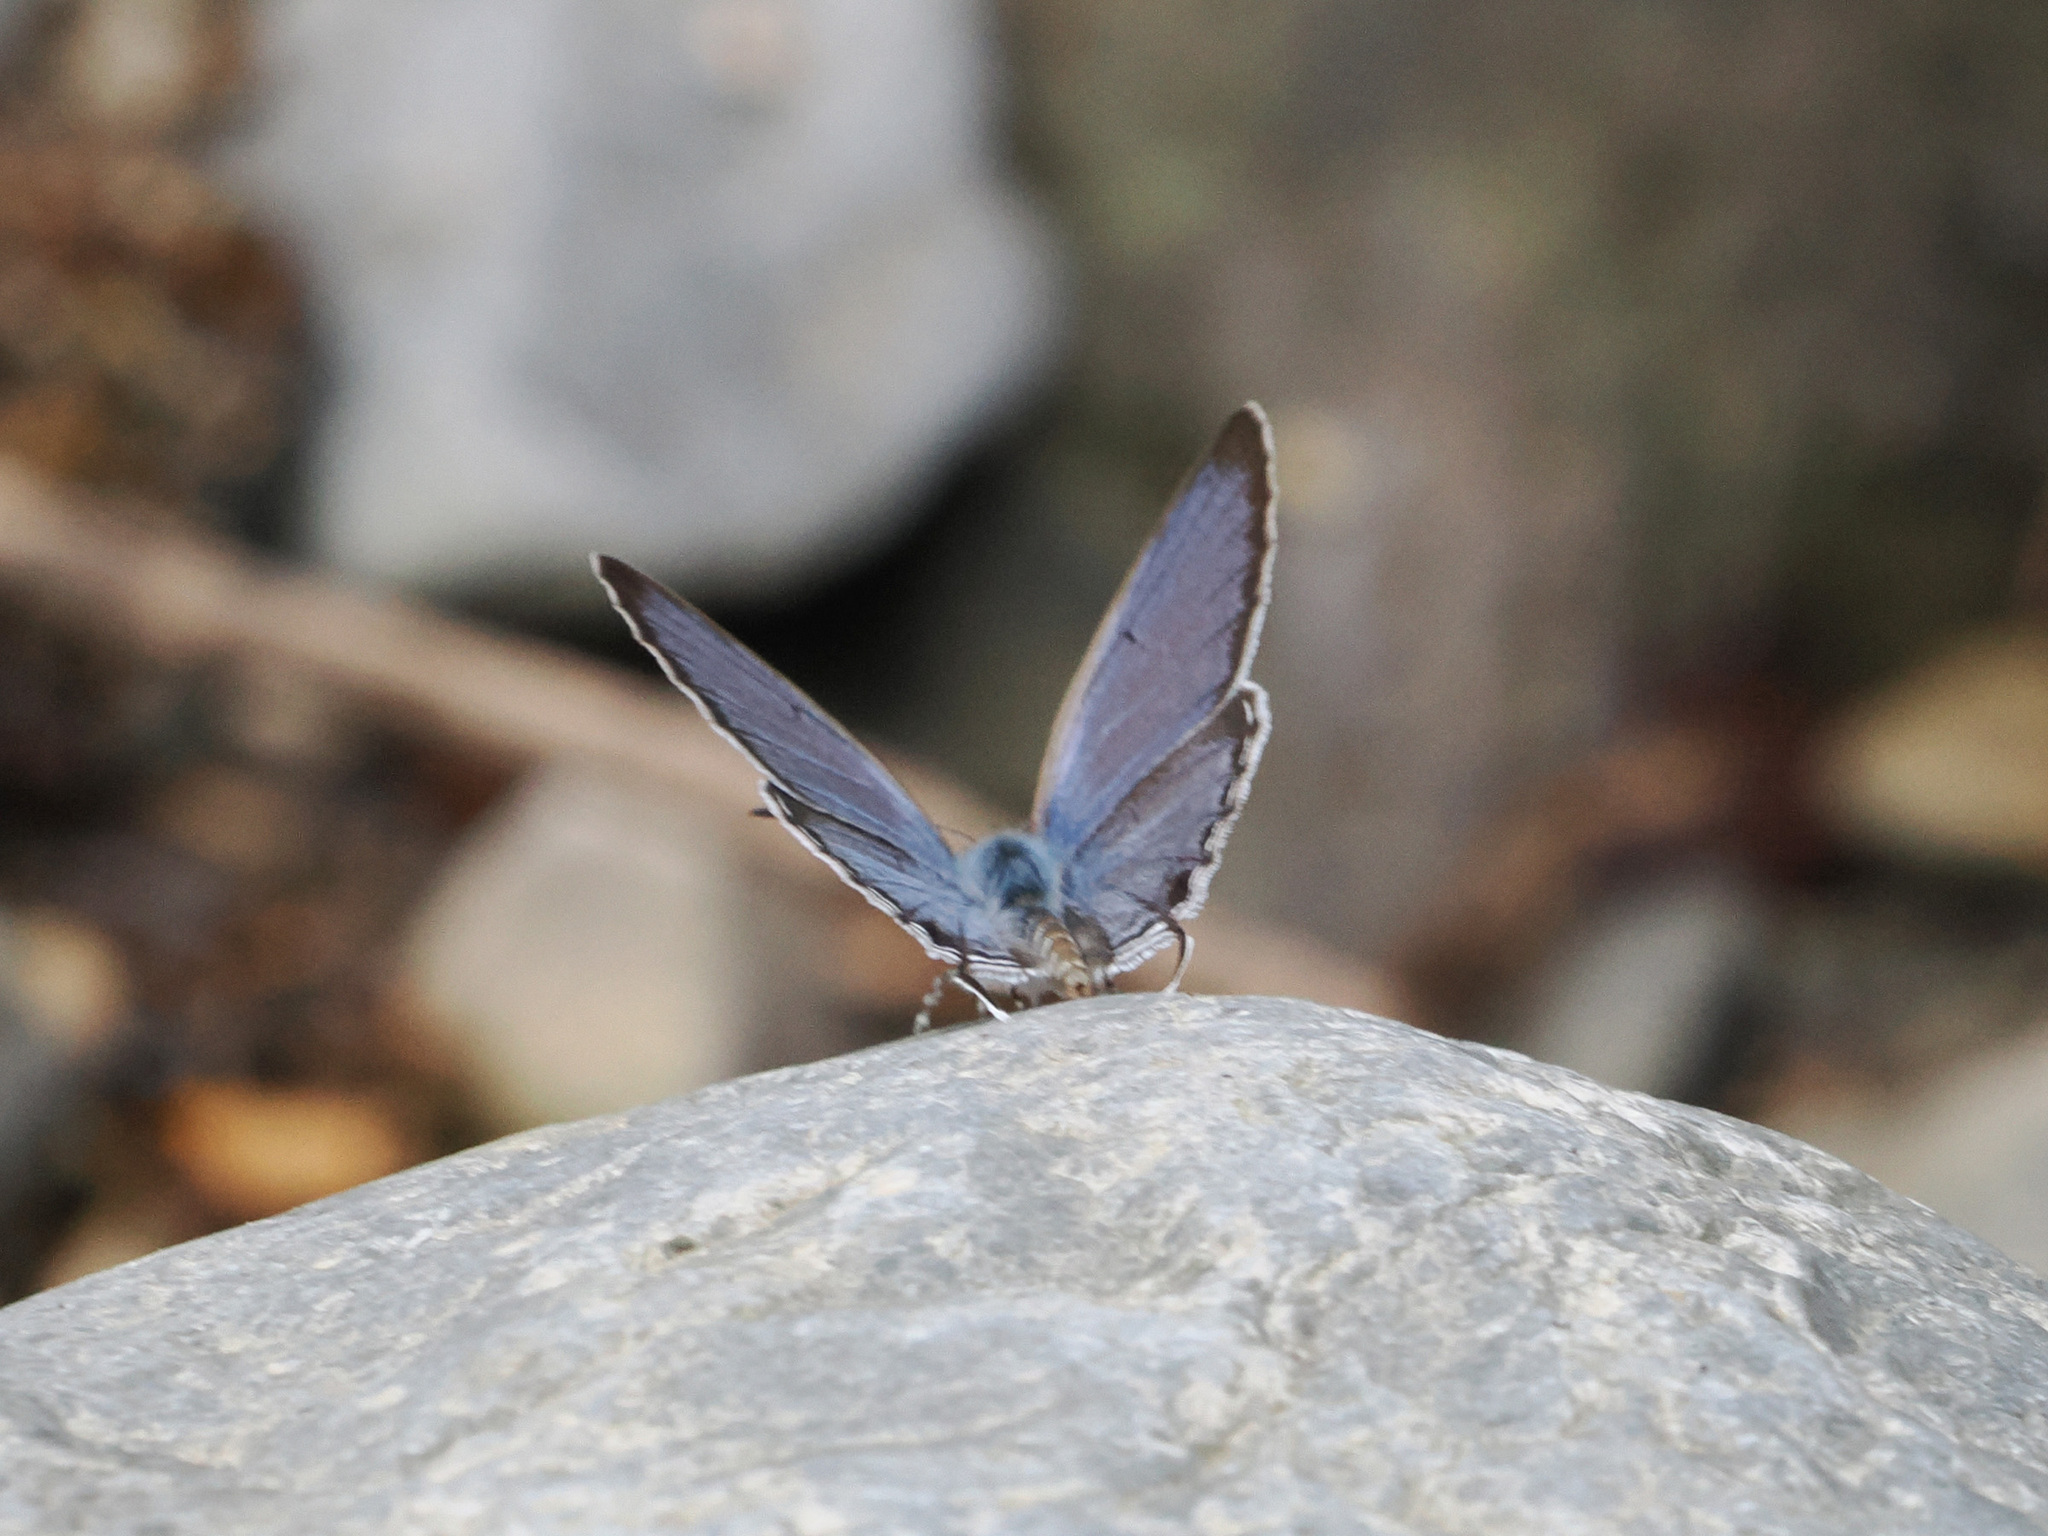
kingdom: Animalia
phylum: Arthropoda
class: Insecta
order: Lepidoptera
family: Lycaenidae
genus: Catopyrops
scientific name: Catopyrops rita
